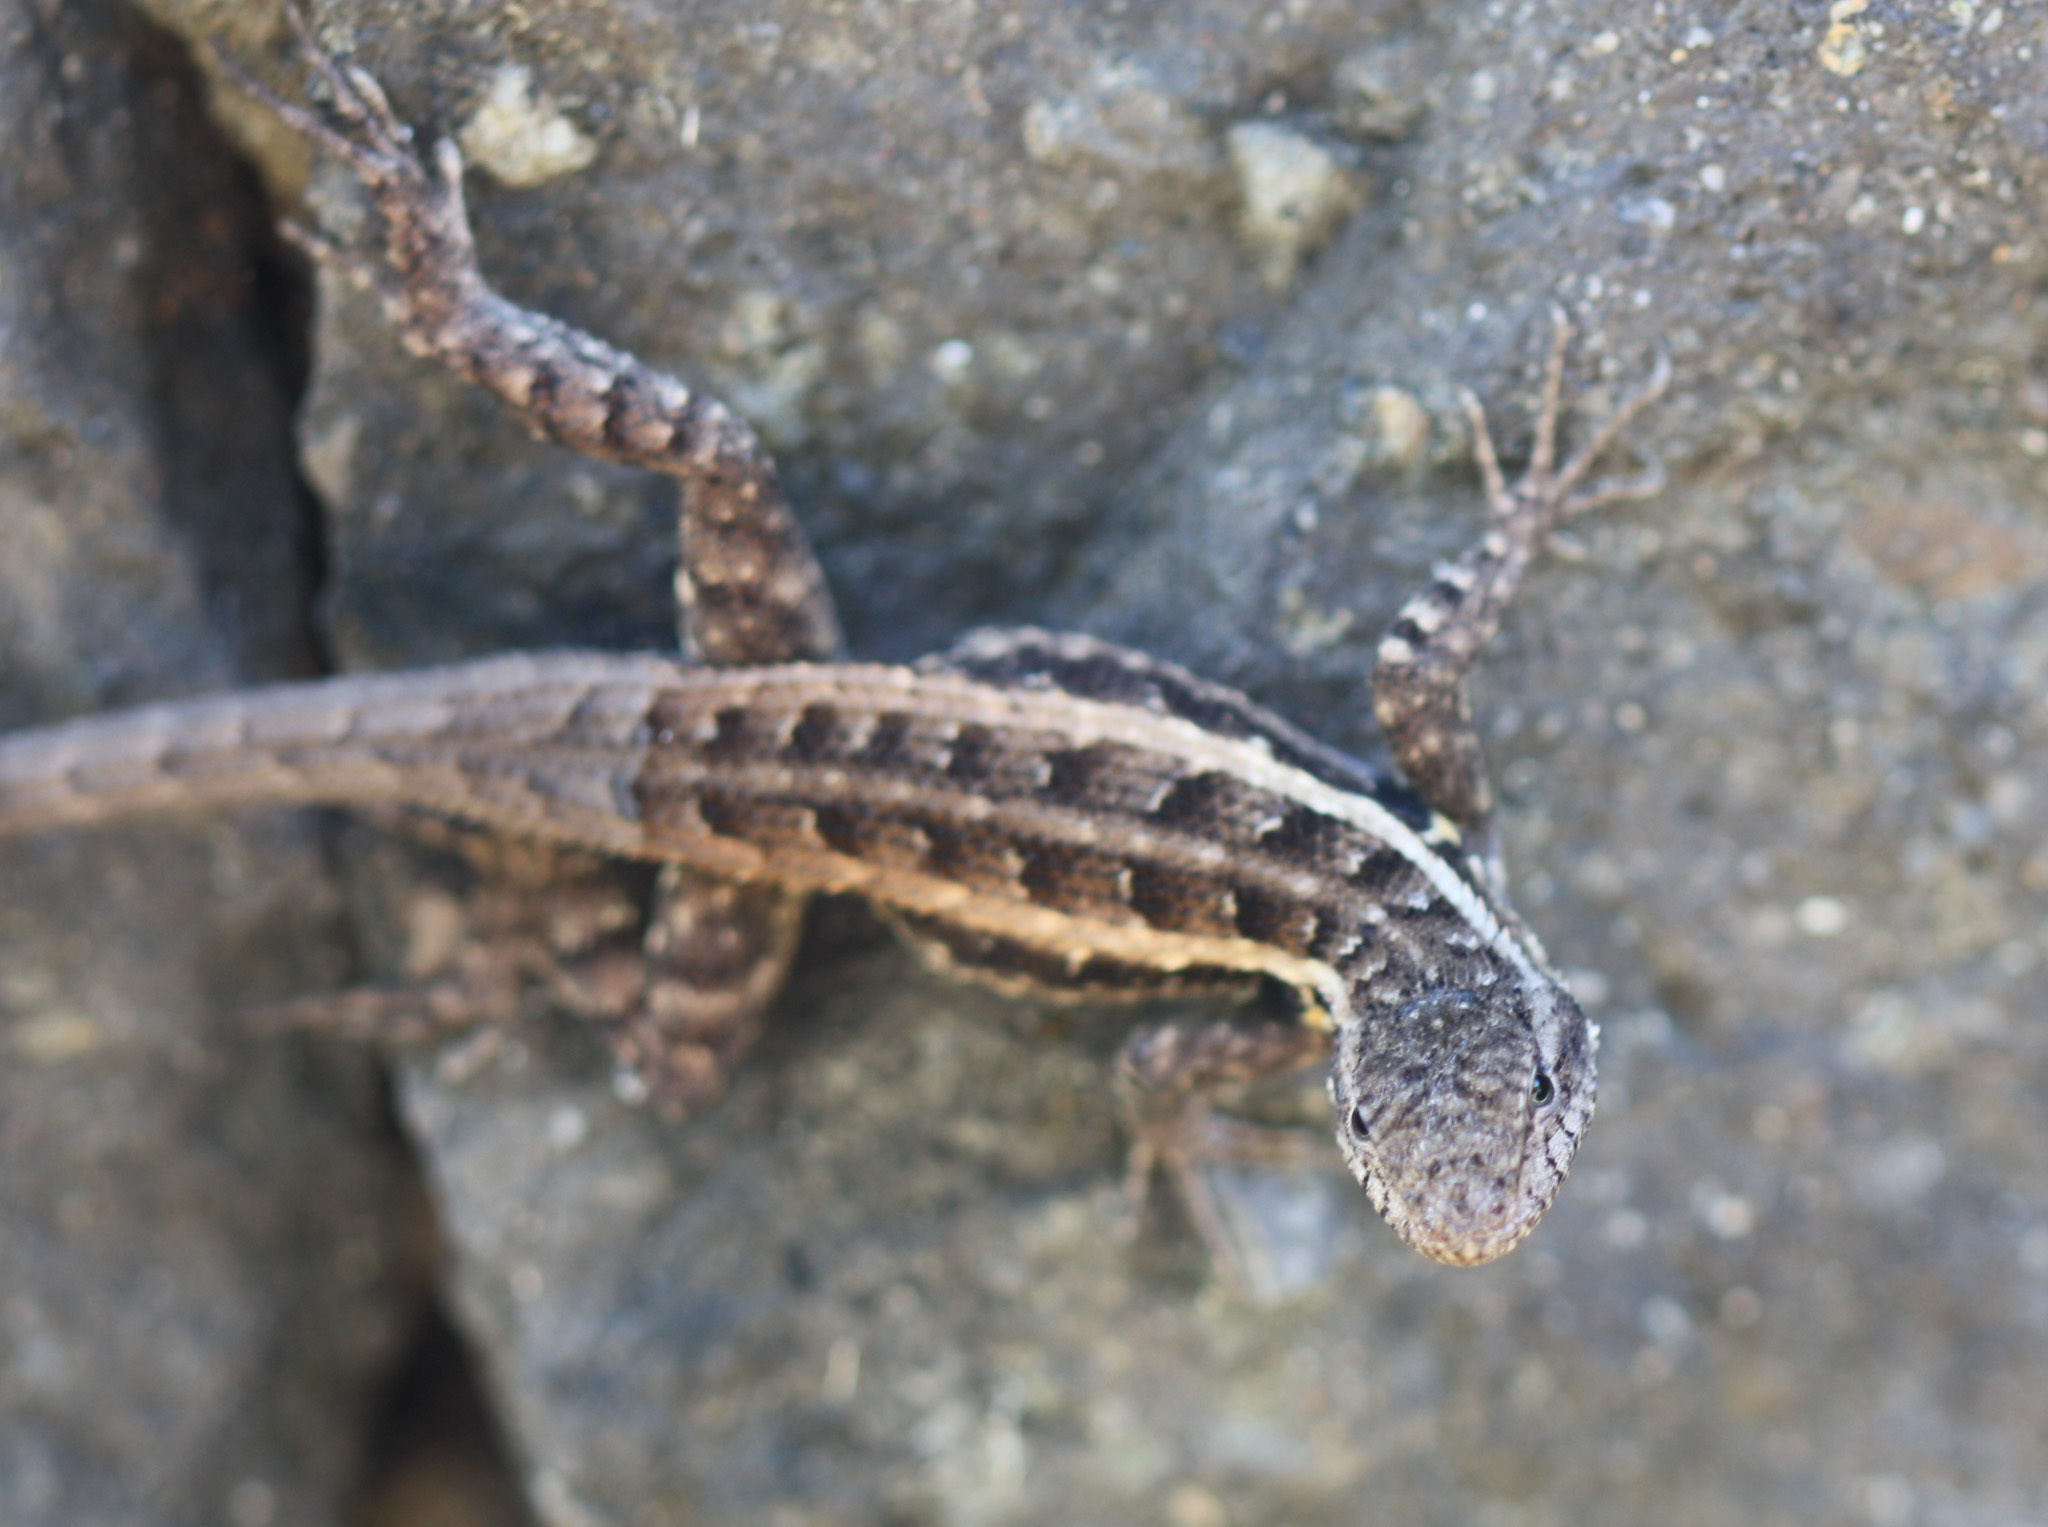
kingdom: Animalia
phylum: Chordata
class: Squamata
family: Phrynosomatidae
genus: Sceloporus
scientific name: Sceloporus variabilis
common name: Rosebelly lizard
